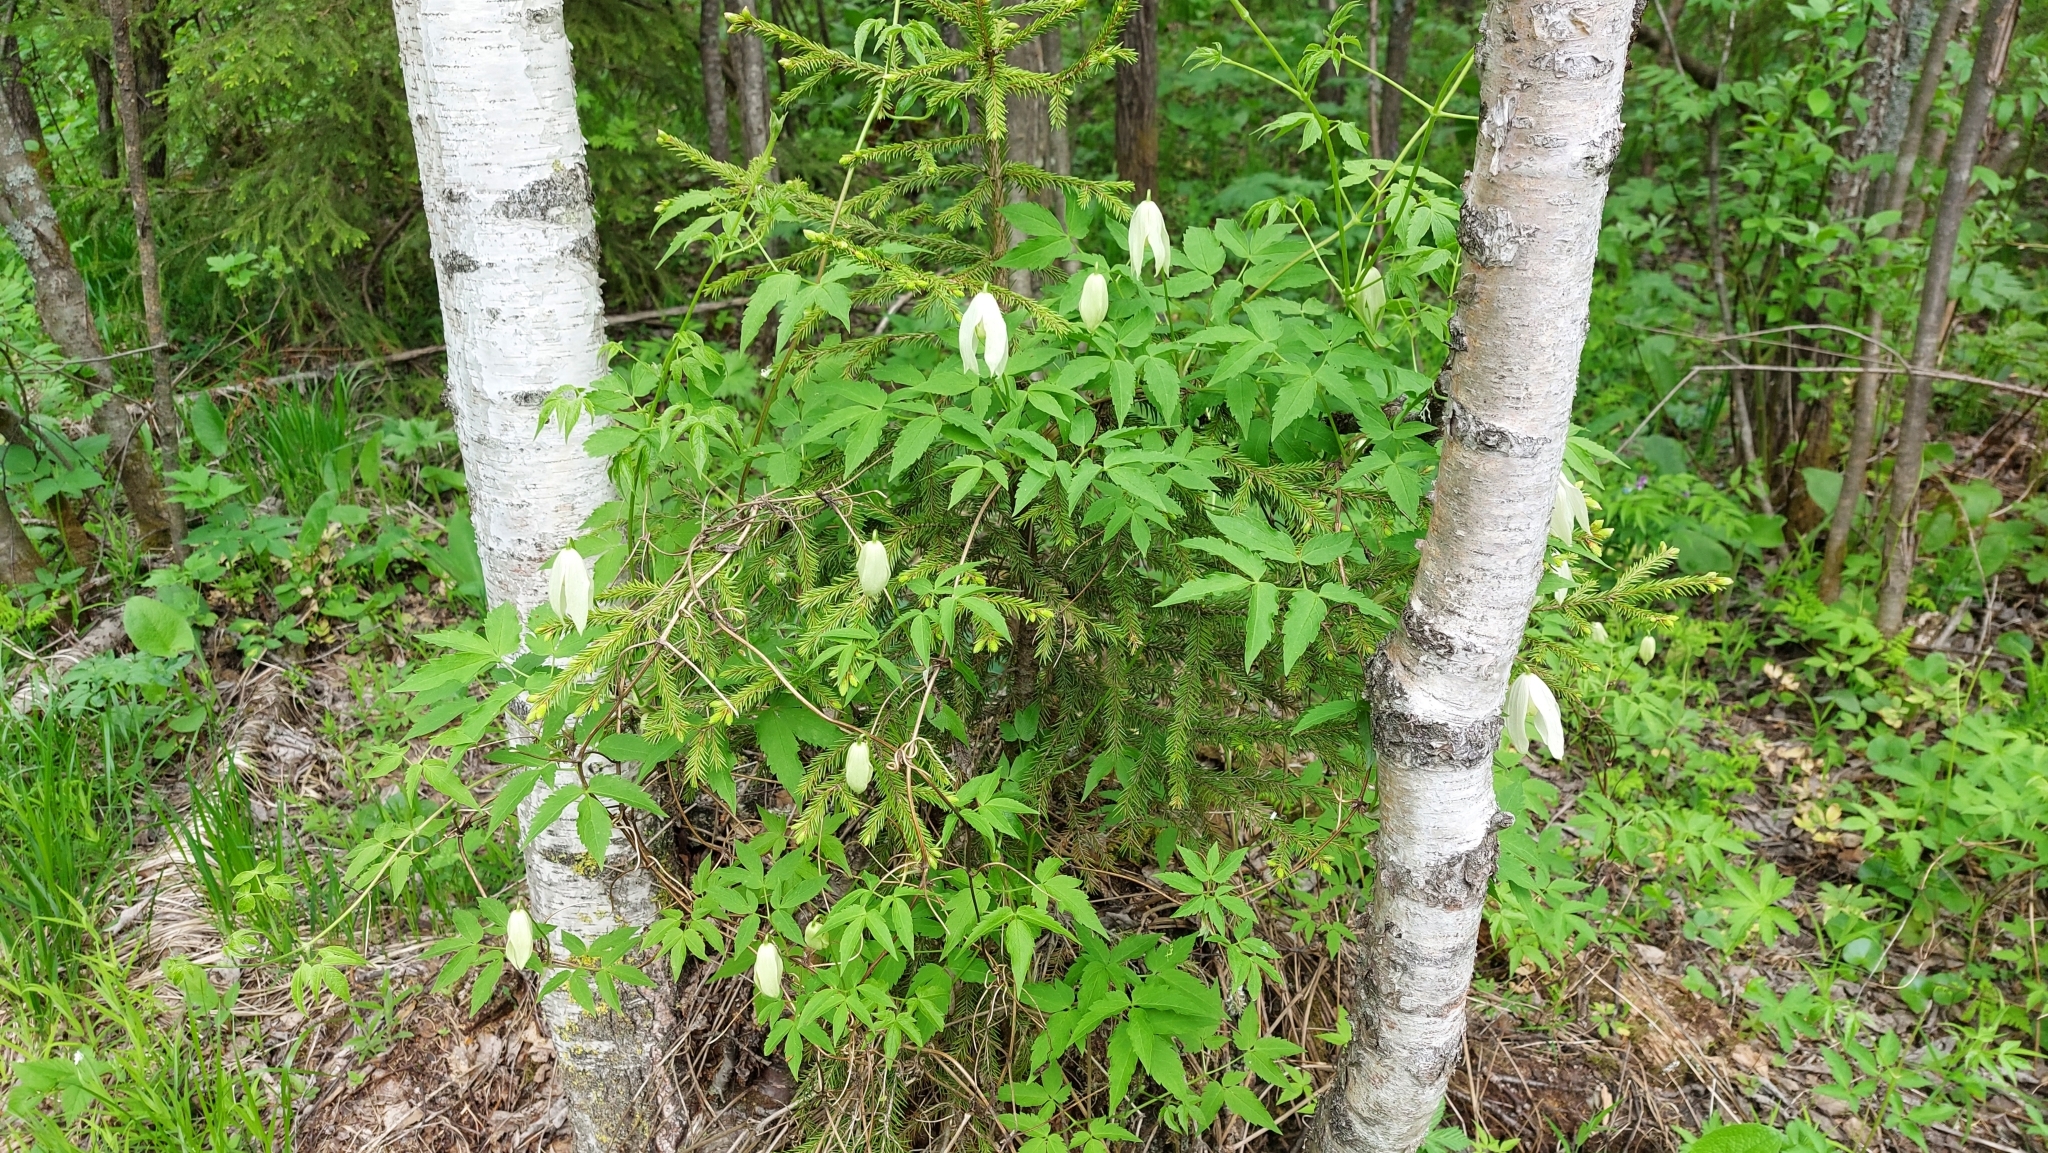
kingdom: Plantae
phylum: Tracheophyta
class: Magnoliopsida
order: Ranunculales
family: Ranunculaceae
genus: Clematis
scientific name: Clematis sibirica
